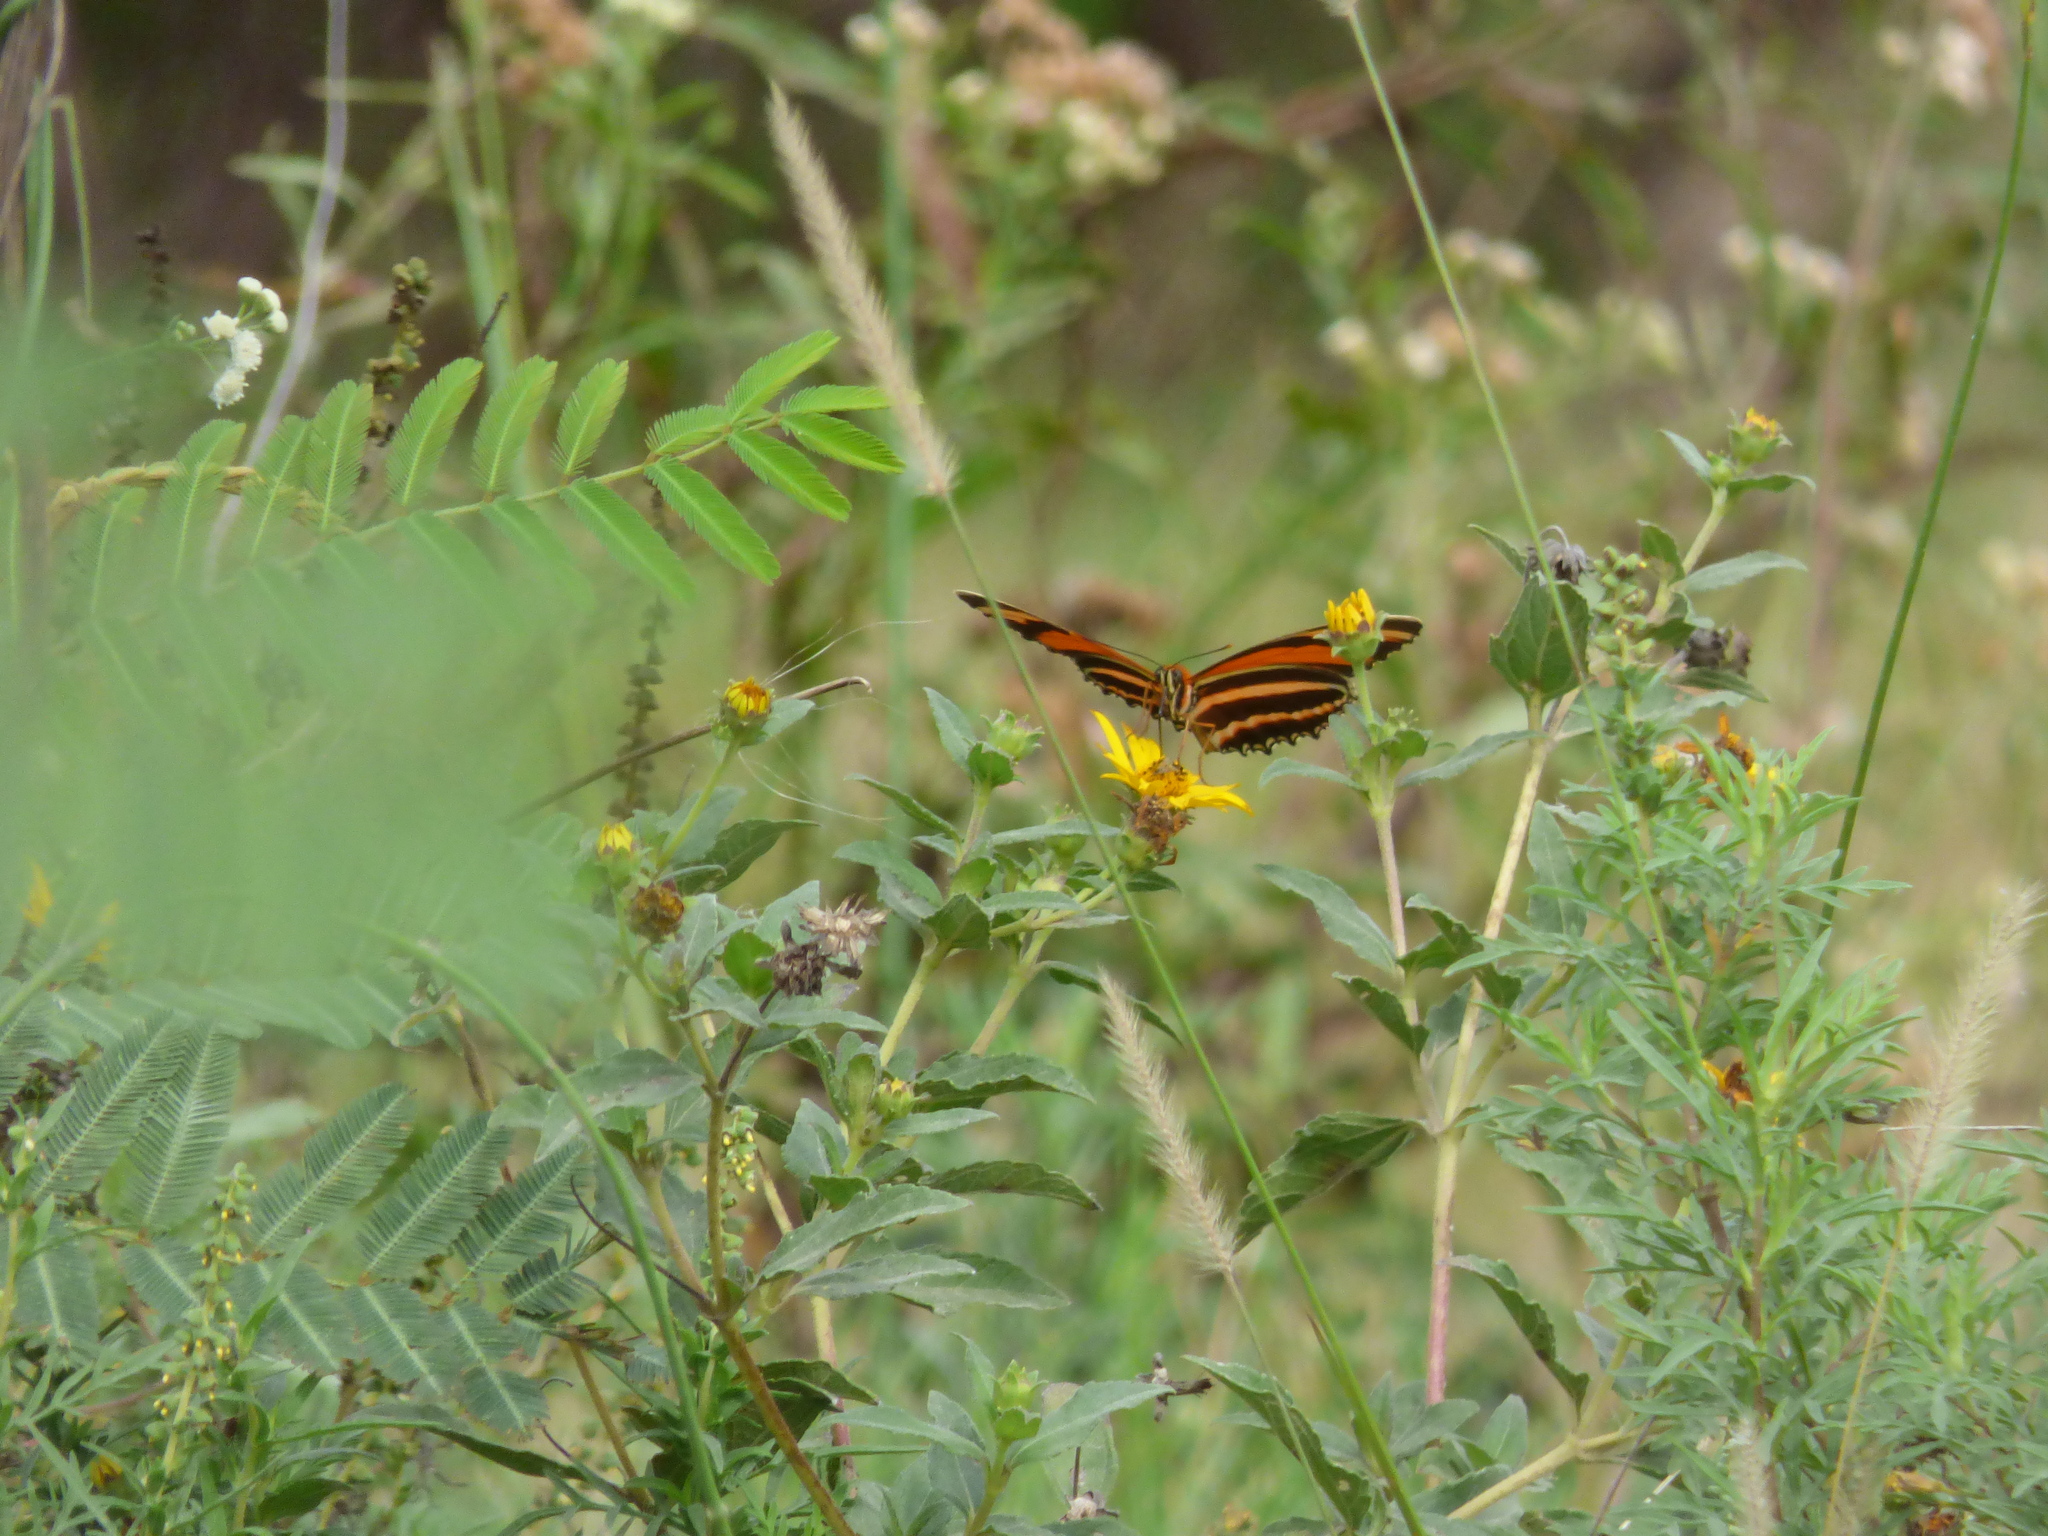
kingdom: Animalia
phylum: Arthropoda
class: Insecta
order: Lepidoptera
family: Nymphalidae
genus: Dryadula
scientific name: Dryadula phaetusa
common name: Banded orange heliconian
